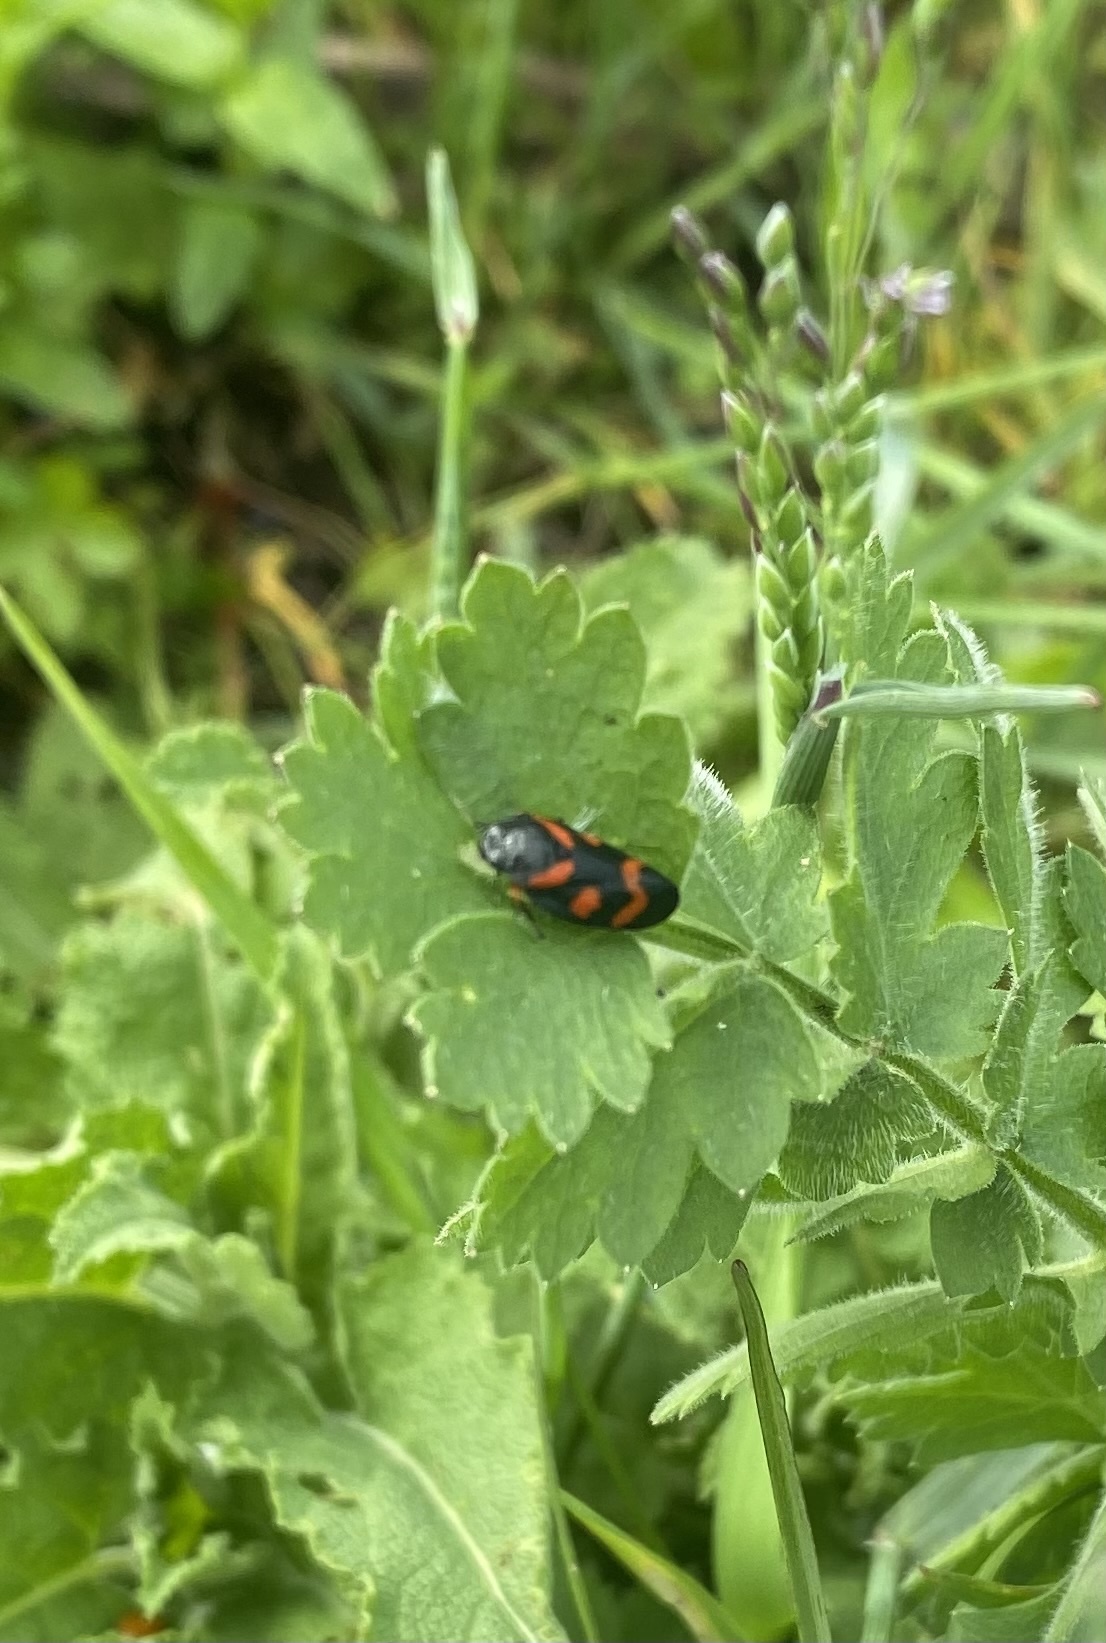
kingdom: Animalia
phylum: Arthropoda
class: Insecta
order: Hemiptera
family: Cercopidae
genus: Cercopis
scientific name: Cercopis intermedia
